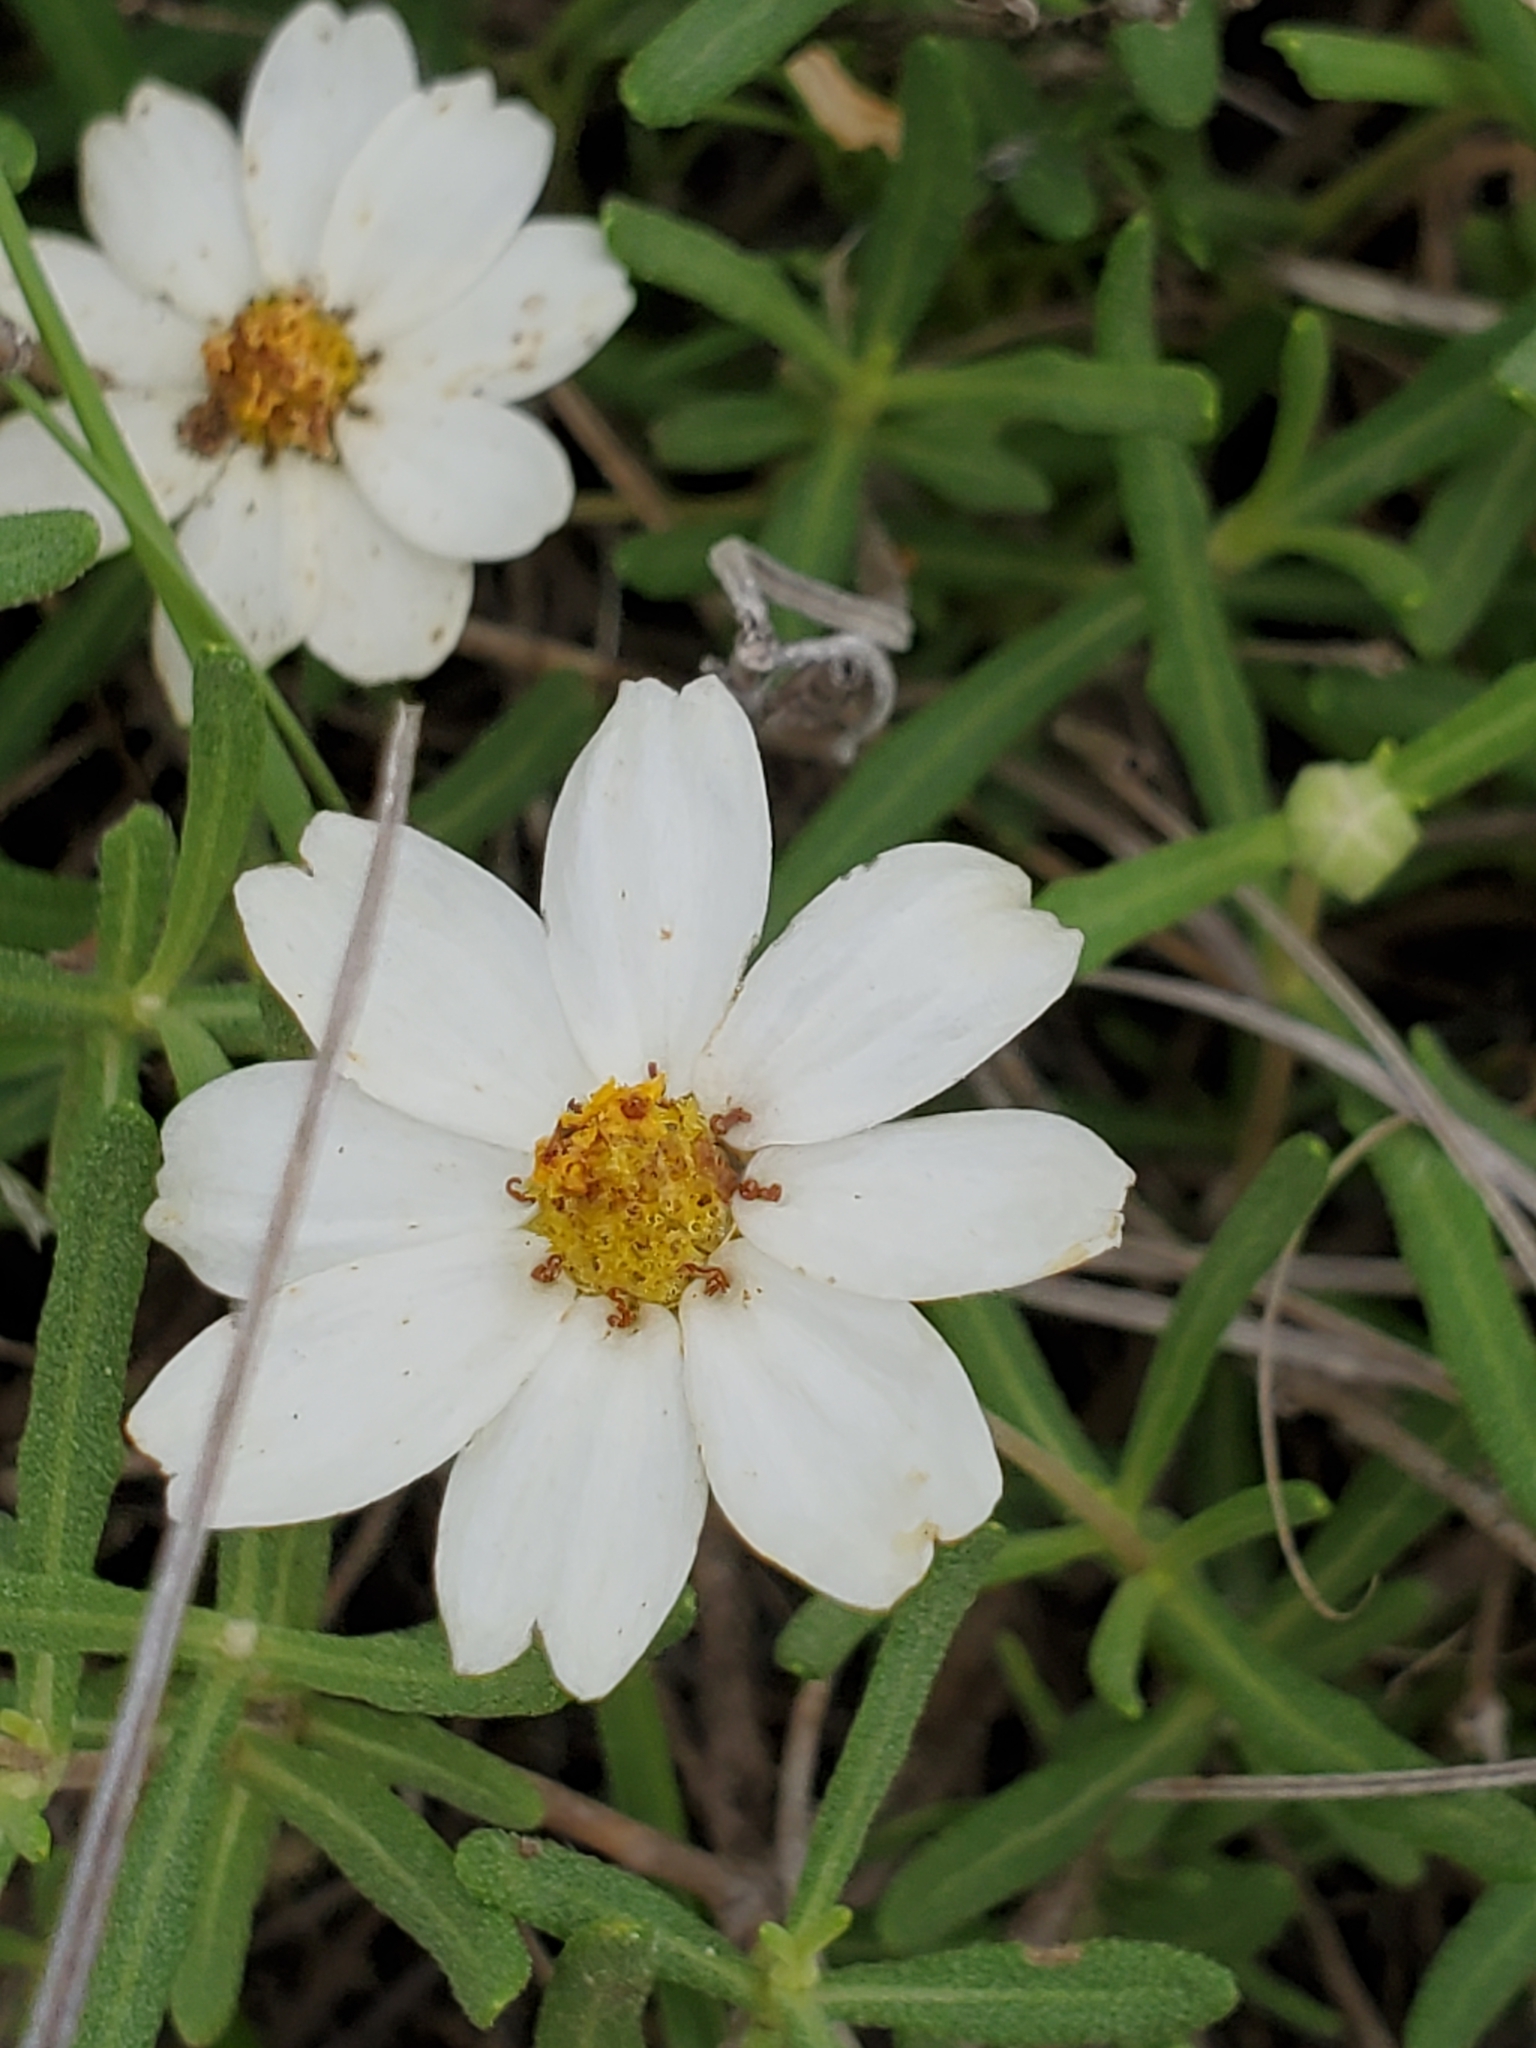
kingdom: Plantae
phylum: Tracheophyta
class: Magnoliopsida
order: Asterales
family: Asteraceae
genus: Melampodium
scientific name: Melampodium leucanthum
